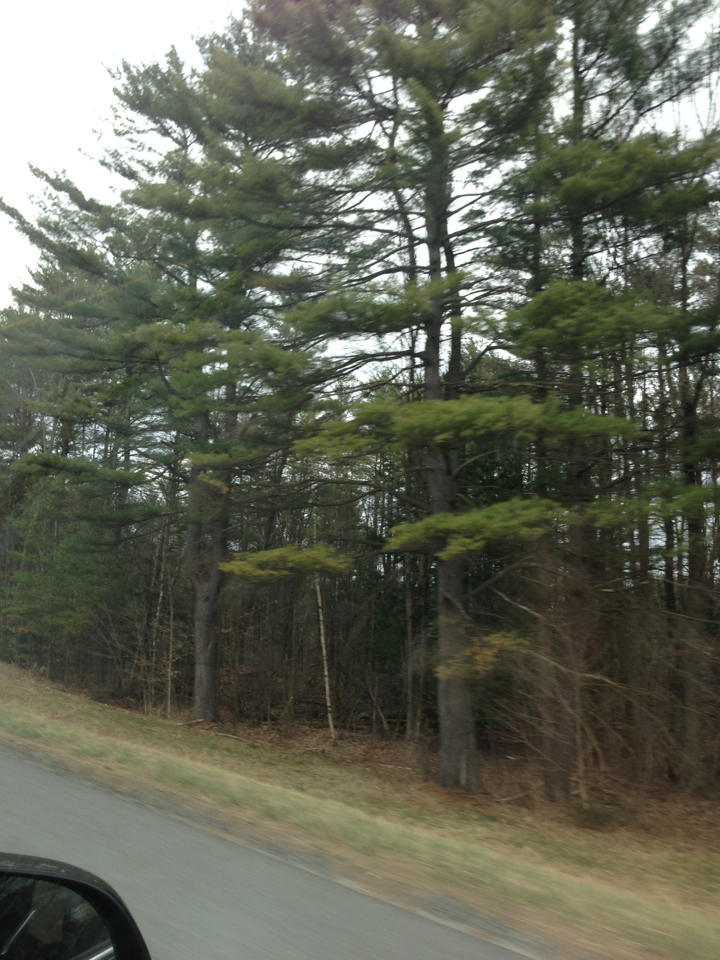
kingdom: Plantae
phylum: Tracheophyta
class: Pinopsida
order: Pinales
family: Pinaceae
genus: Pinus
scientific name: Pinus strobus
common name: Weymouth pine
